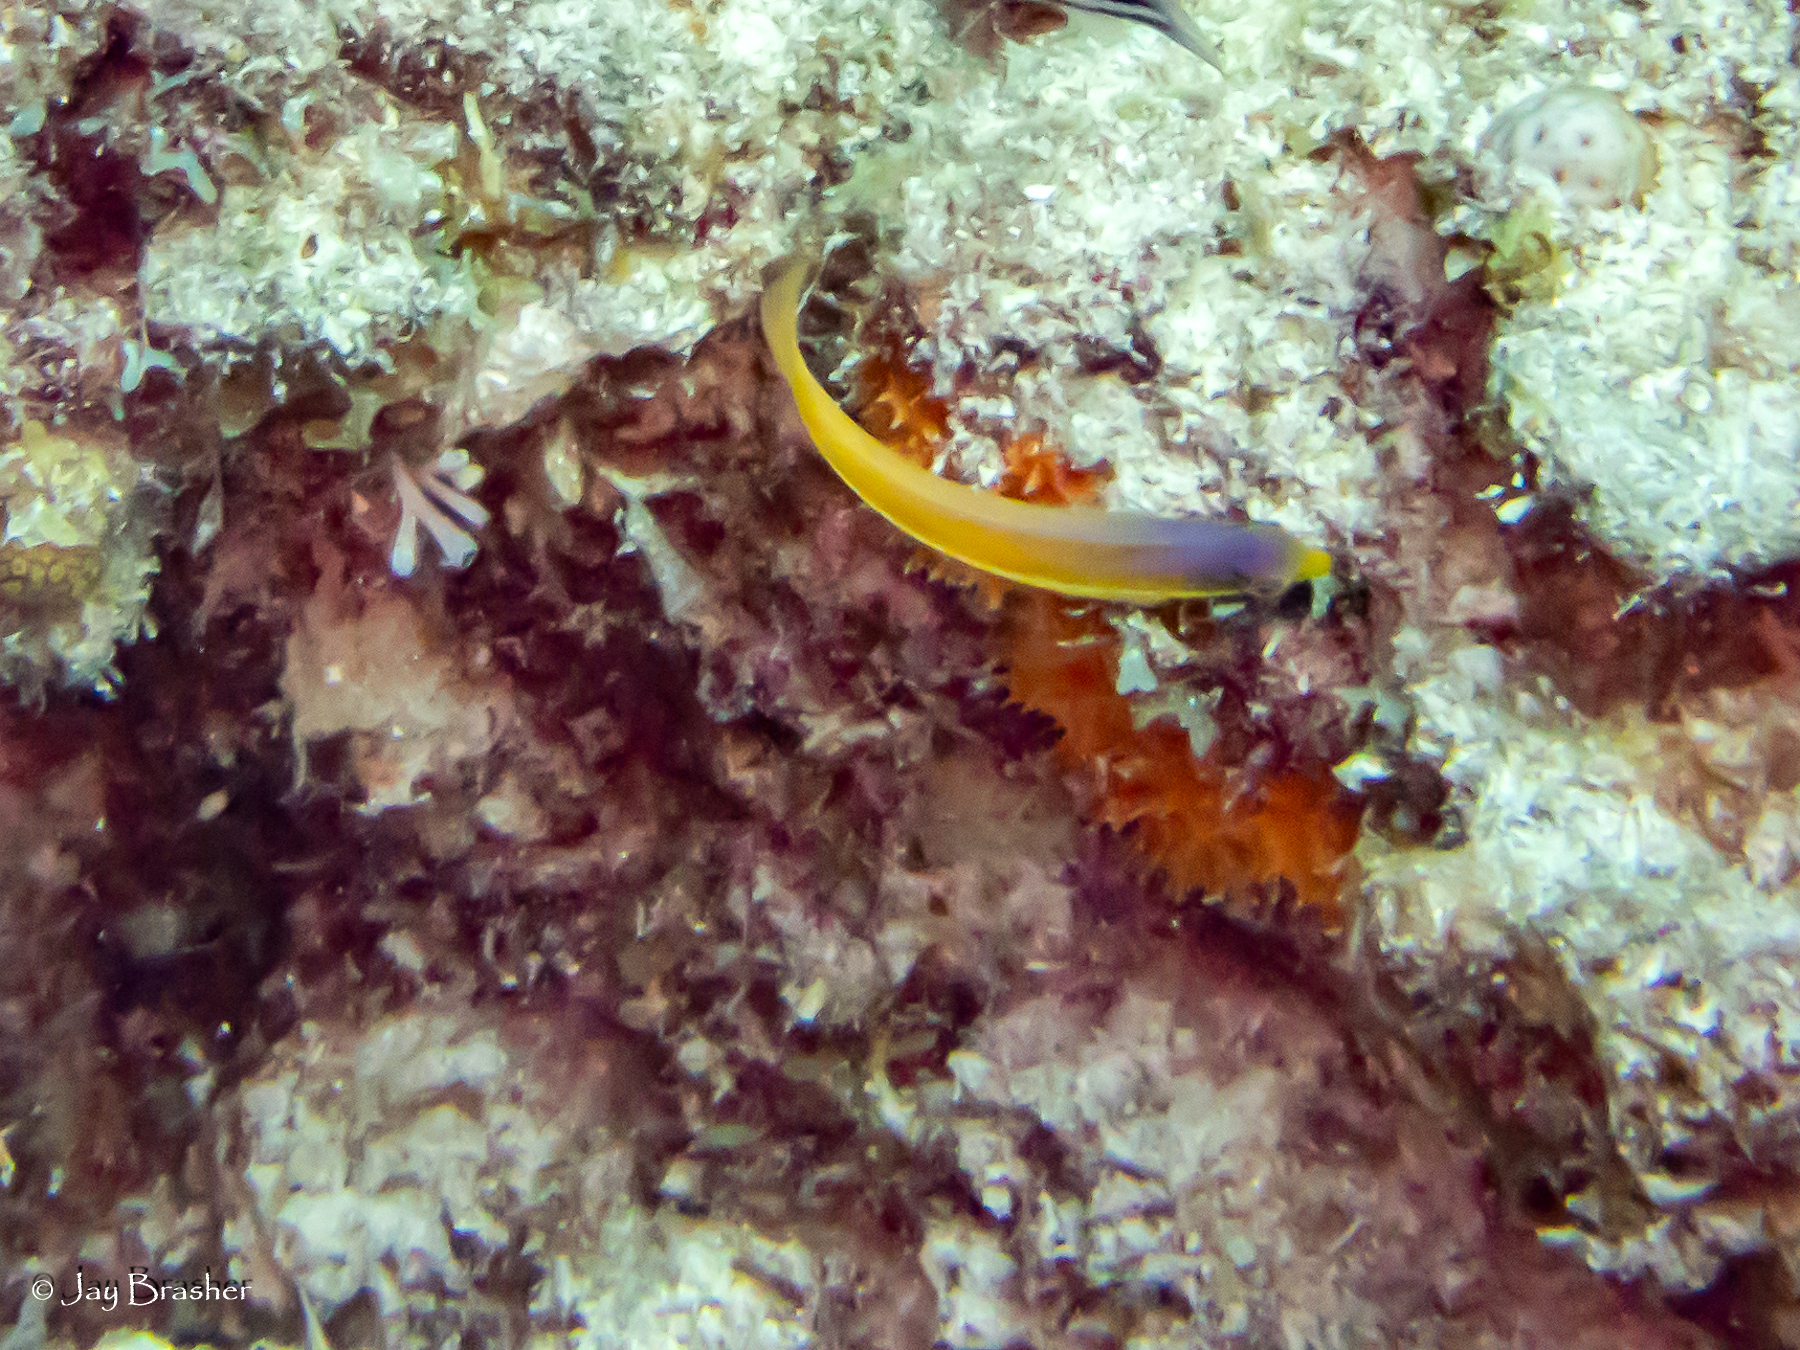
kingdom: Animalia
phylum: Chordata
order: Perciformes
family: Labridae
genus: Halichoeres
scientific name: Halichoeres garnoti
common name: Yellowhead wrasse
